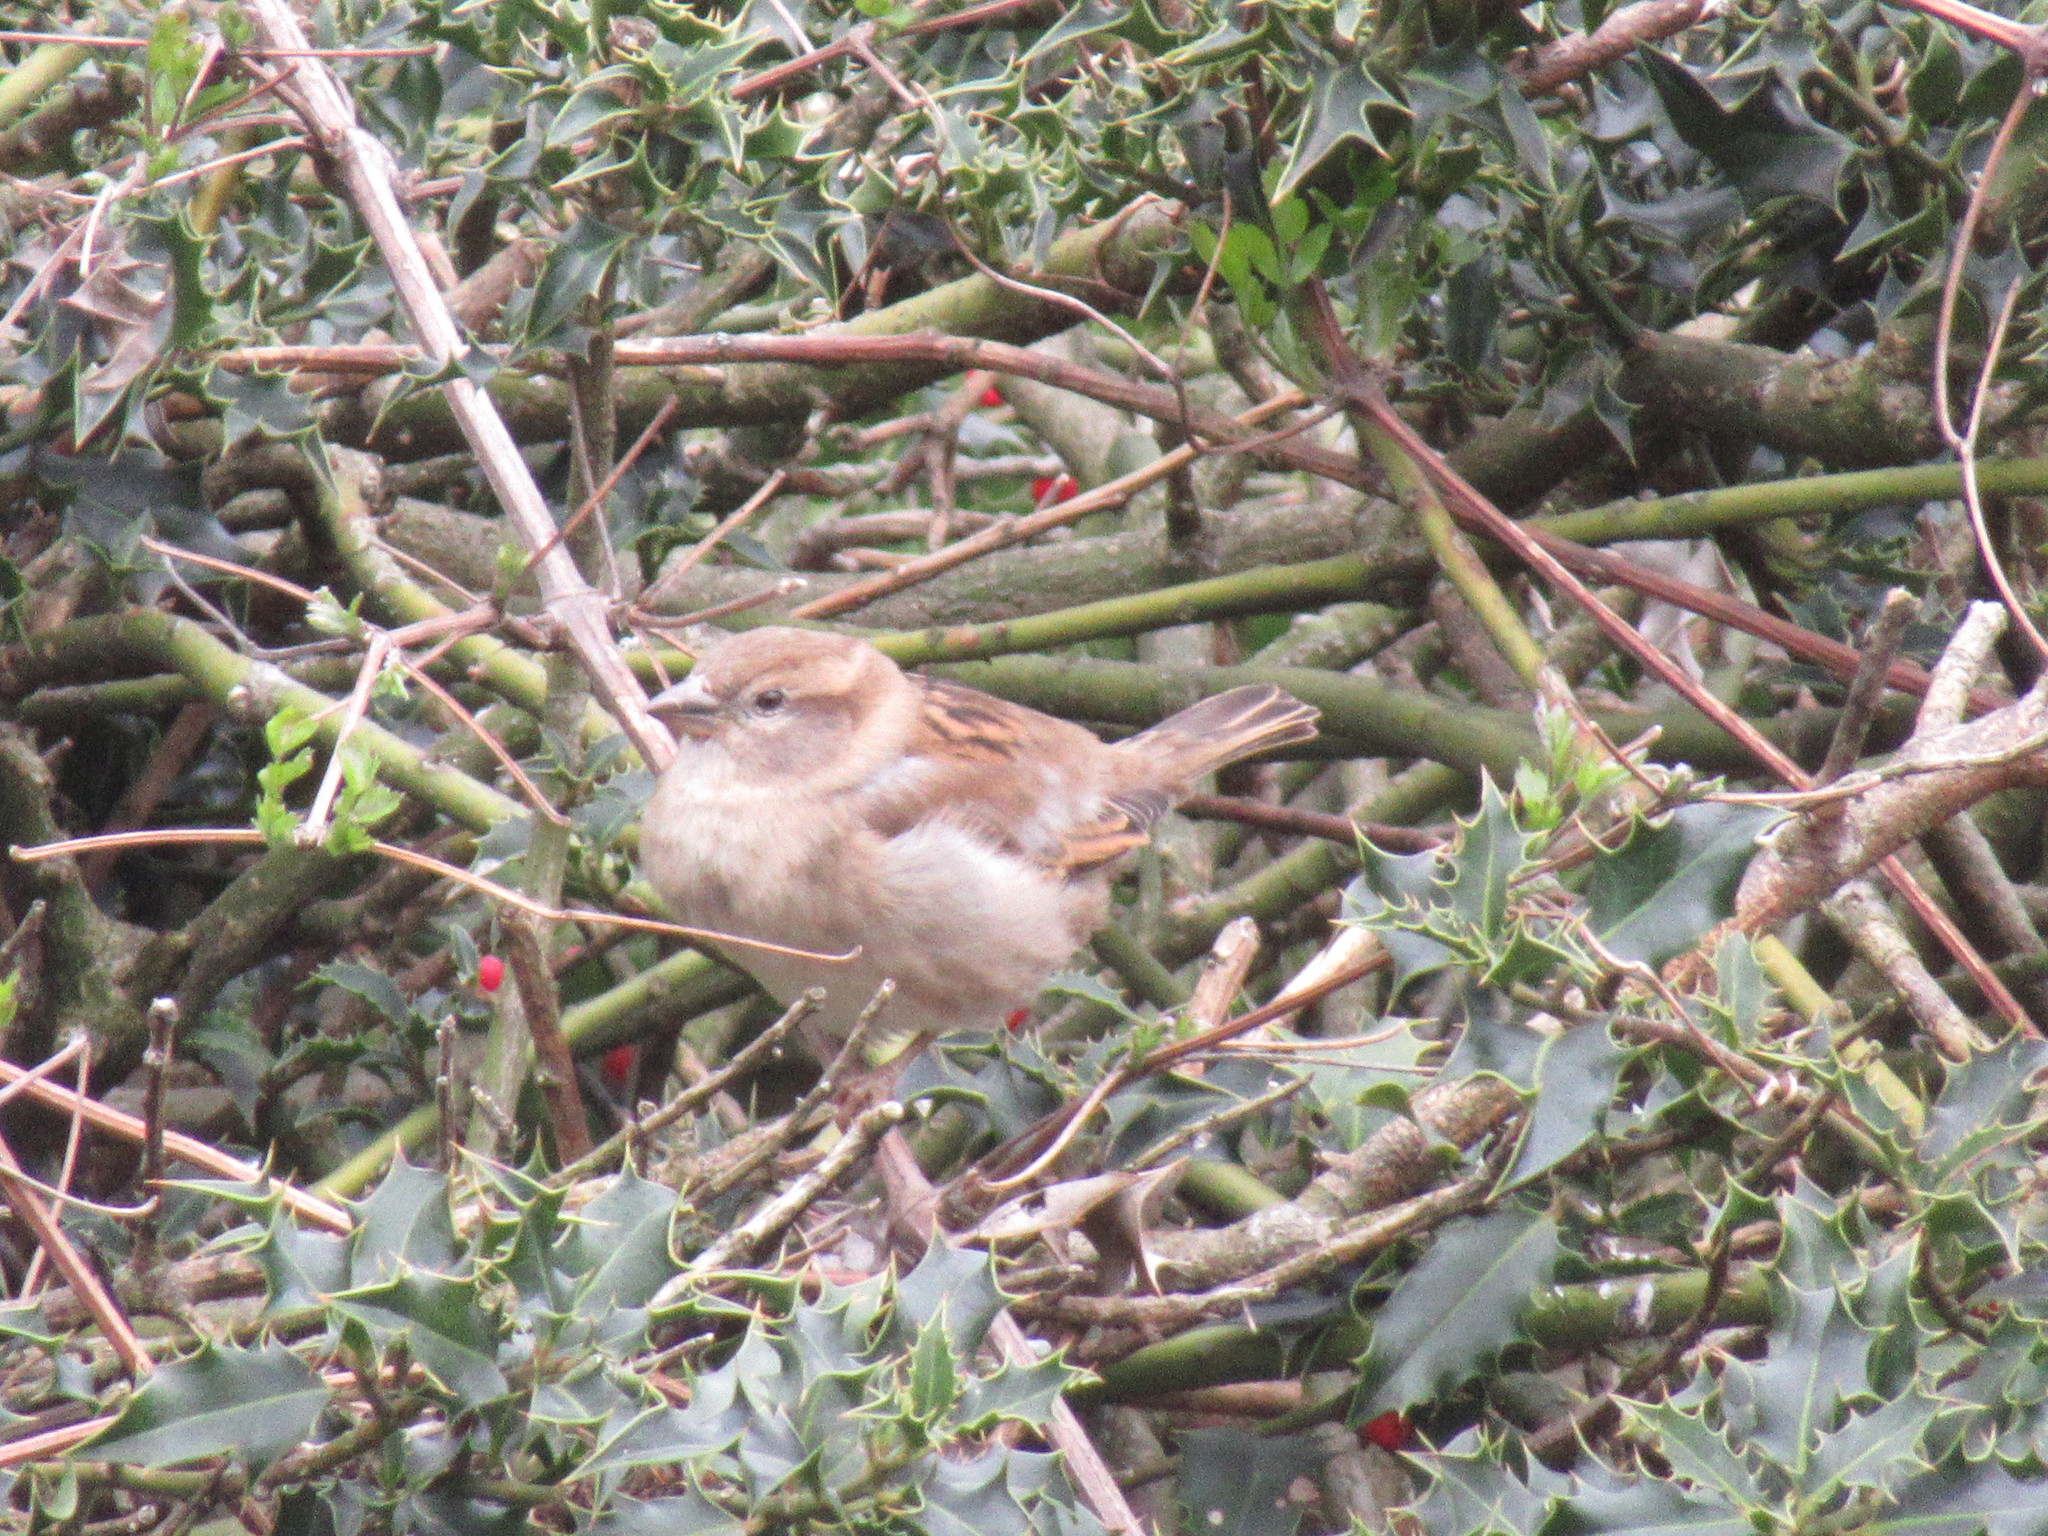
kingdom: Animalia
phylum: Chordata
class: Aves
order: Passeriformes
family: Passeridae
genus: Passer
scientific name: Passer domesticus
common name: House sparrow
